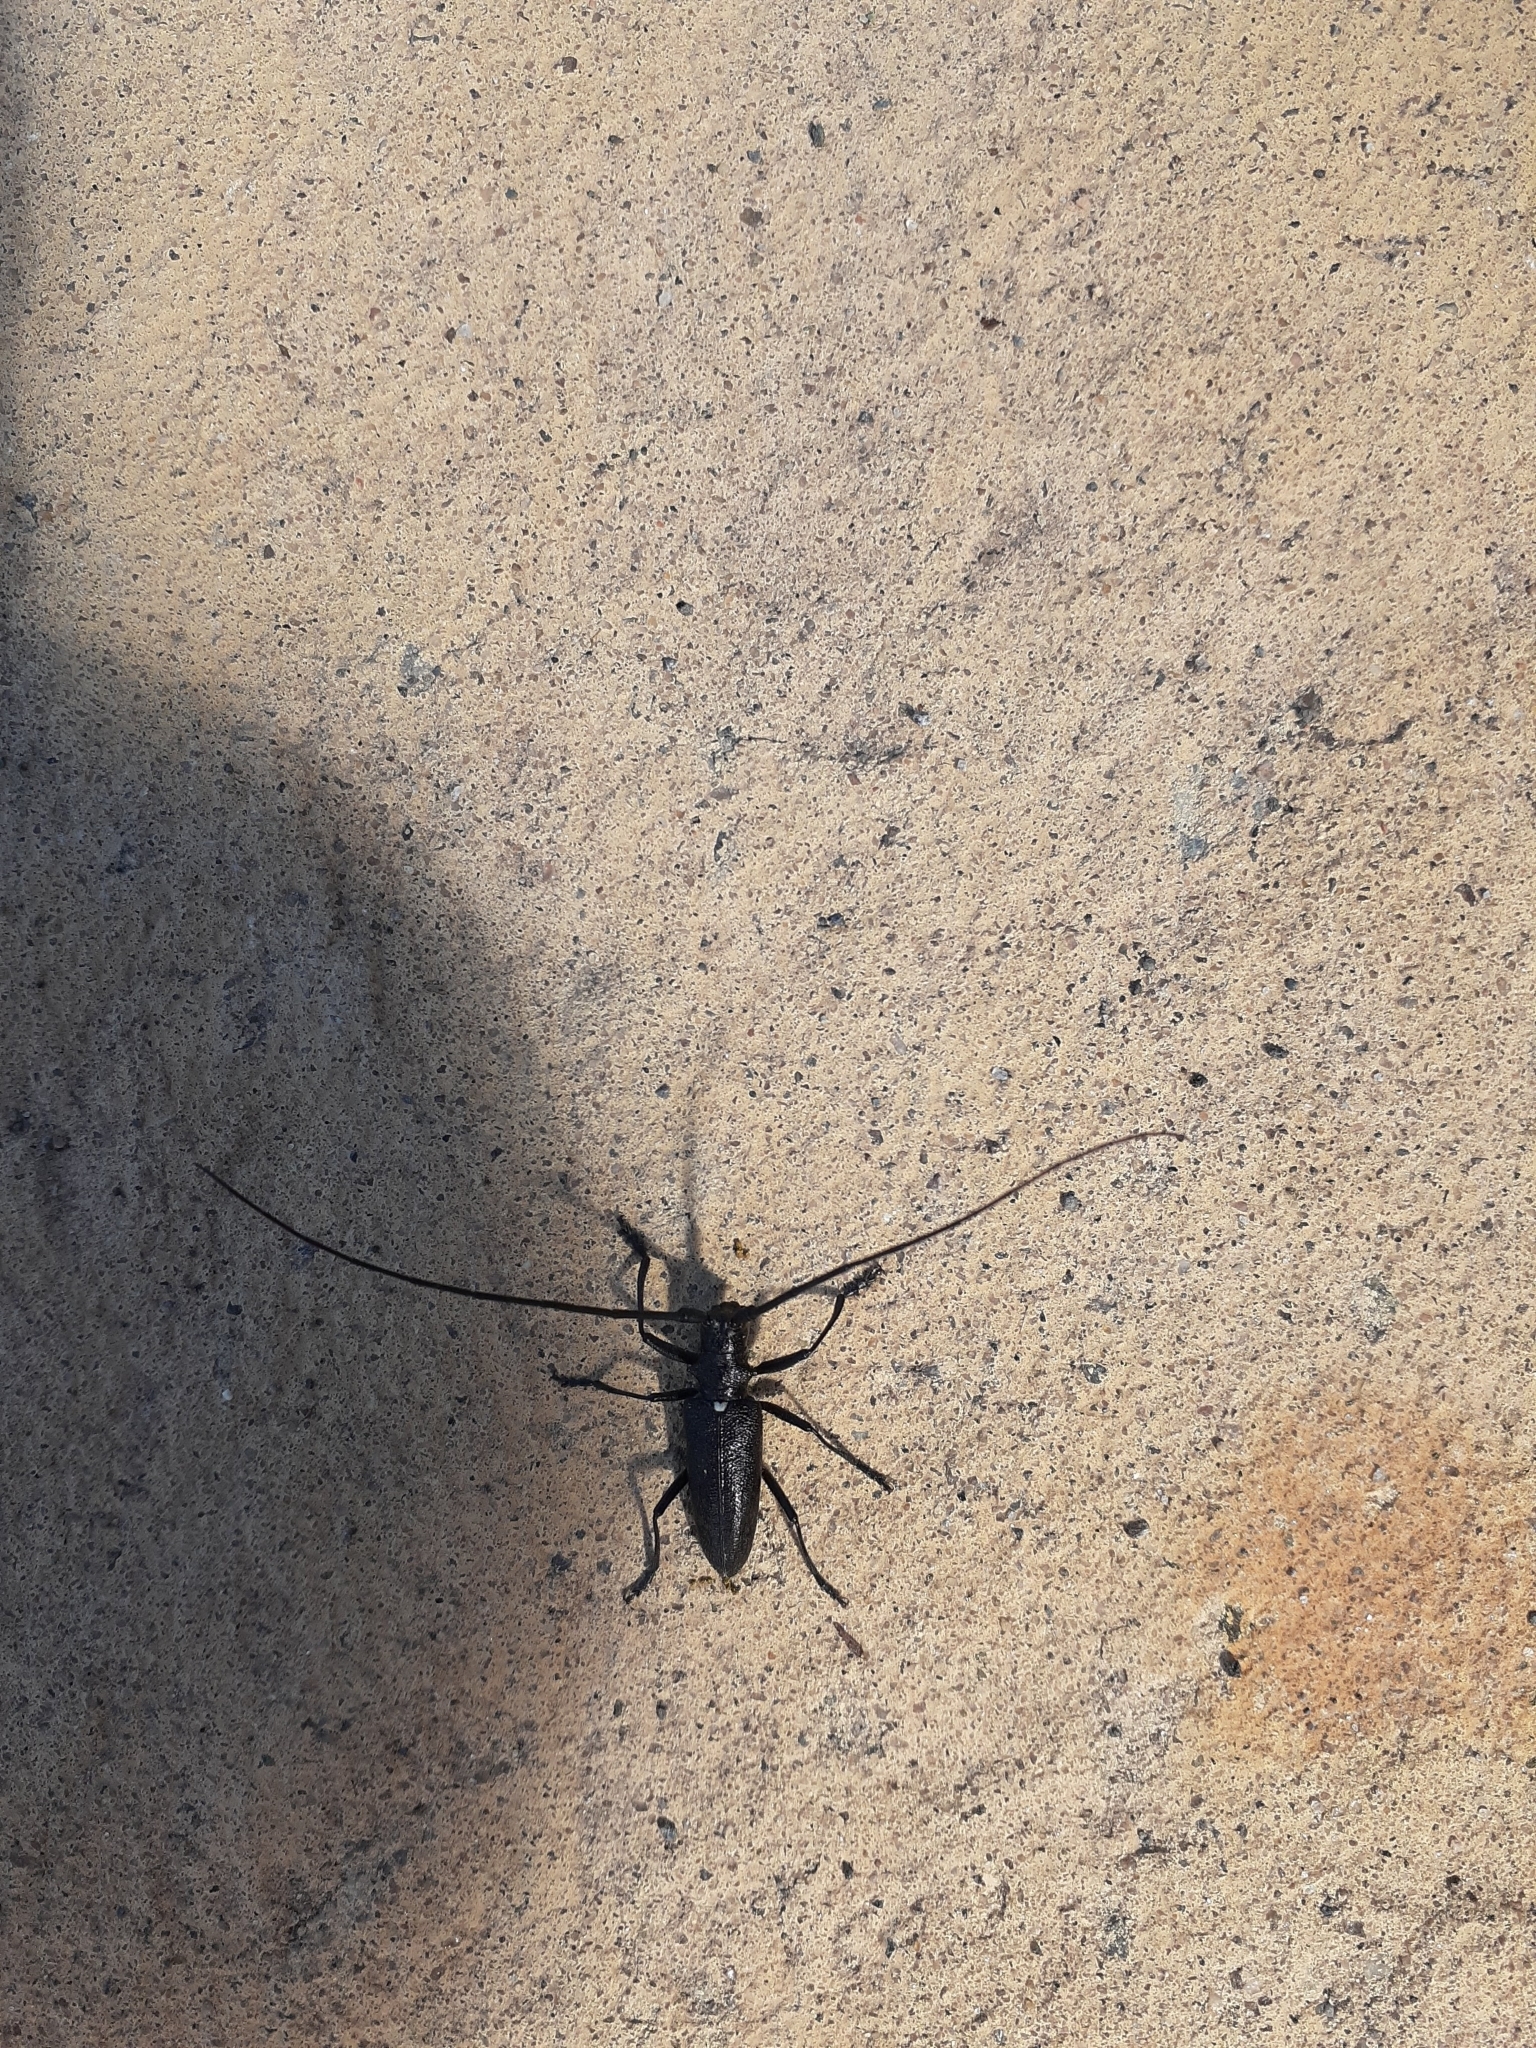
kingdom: Animalia
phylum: Arthropoda
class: Insecta
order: Coleoptera
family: Cerambycidae
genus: Monochamus
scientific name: Monochamus scutellatus
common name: White-spotted sawyer beetle
